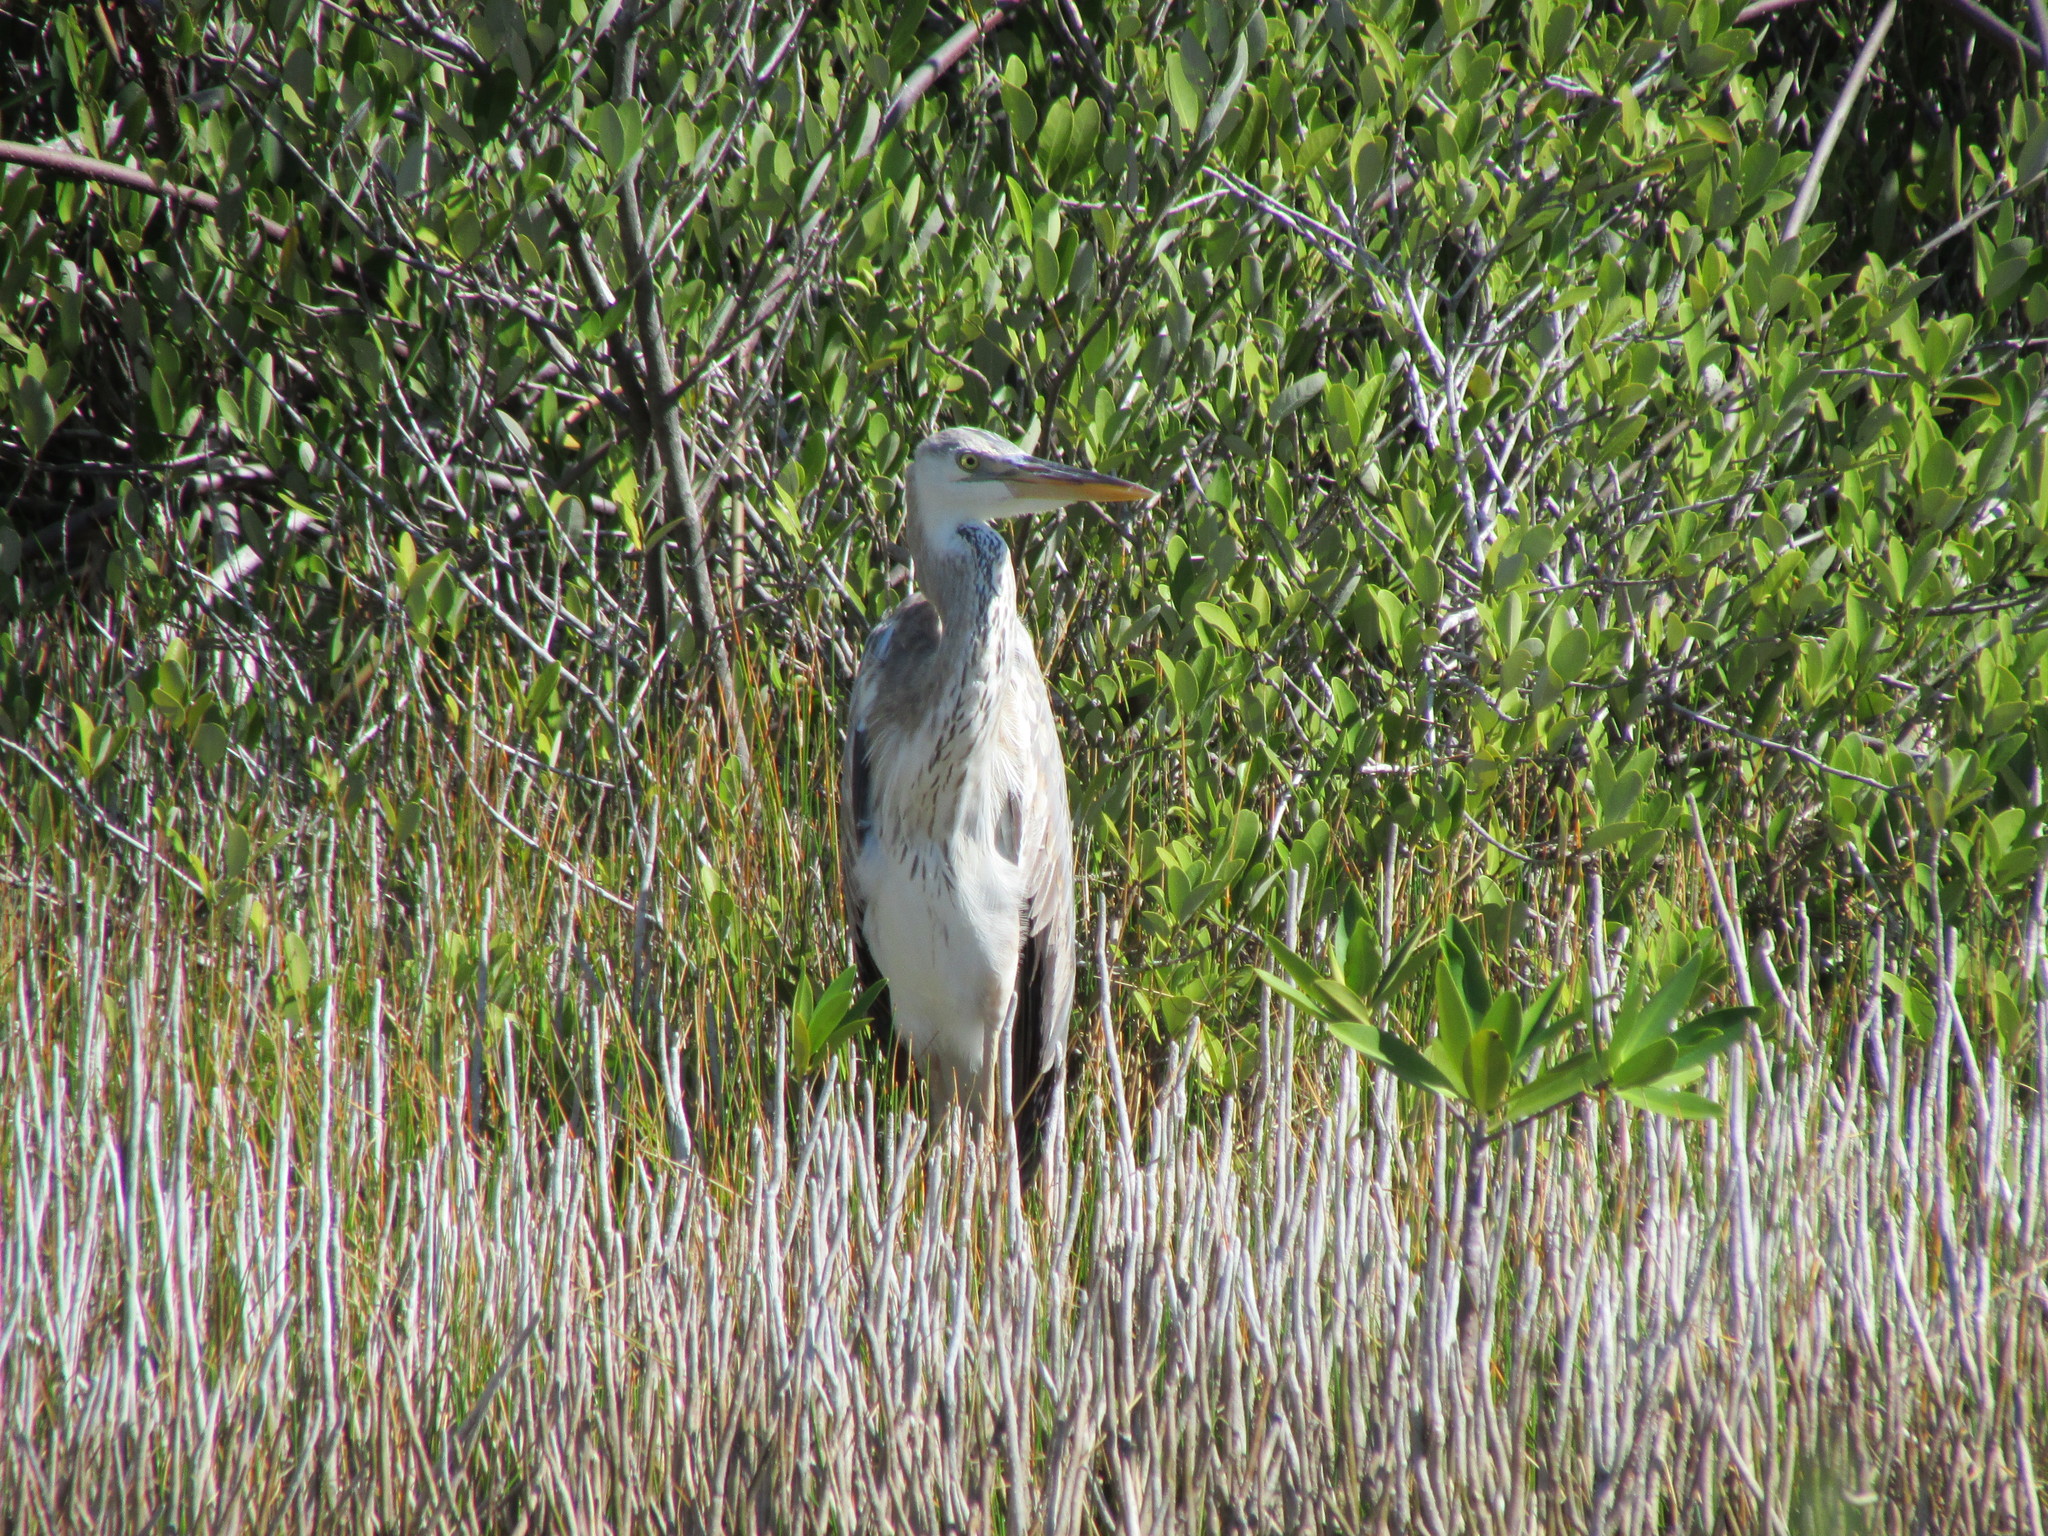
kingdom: Animalia
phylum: Chordata
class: Aves
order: Pelecaniformes
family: Ardeidae
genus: Ardea
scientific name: Ardea
